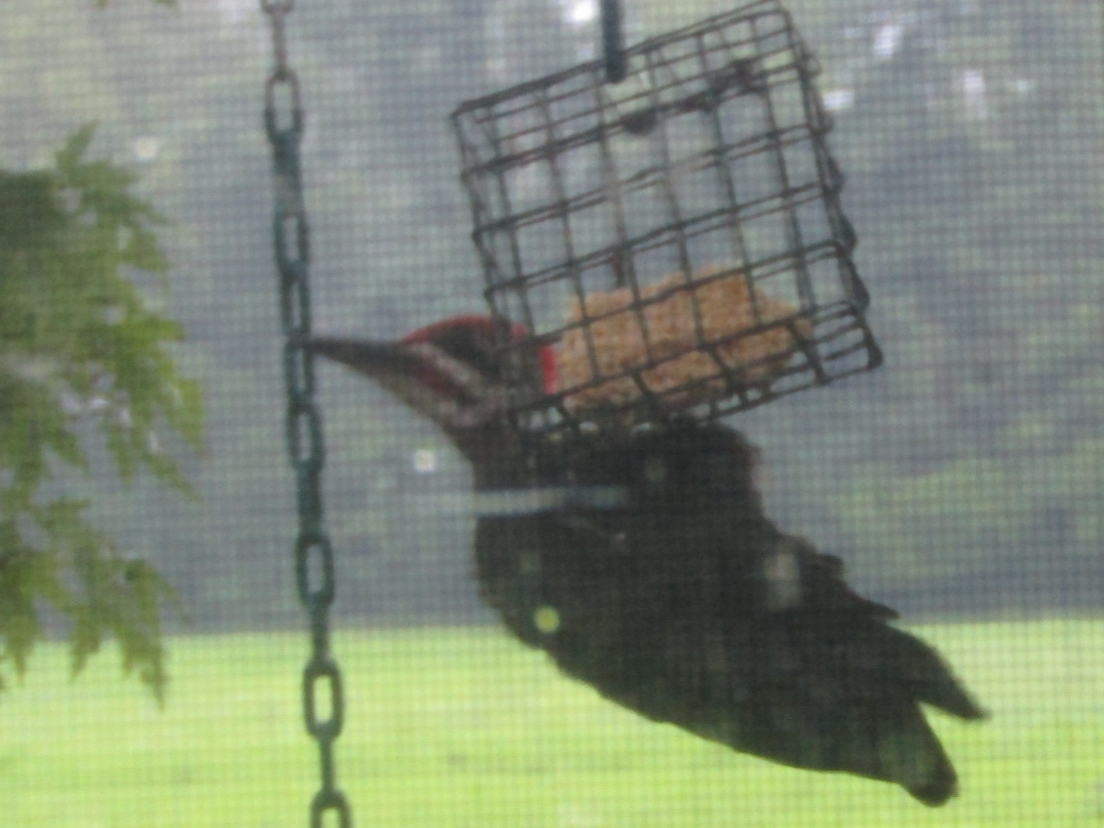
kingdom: Animalia
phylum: Chordata
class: Aves
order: Piciformes
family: Picidae
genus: Dryocopus
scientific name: Dryocopus pileatus
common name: Pileated woodpecker
